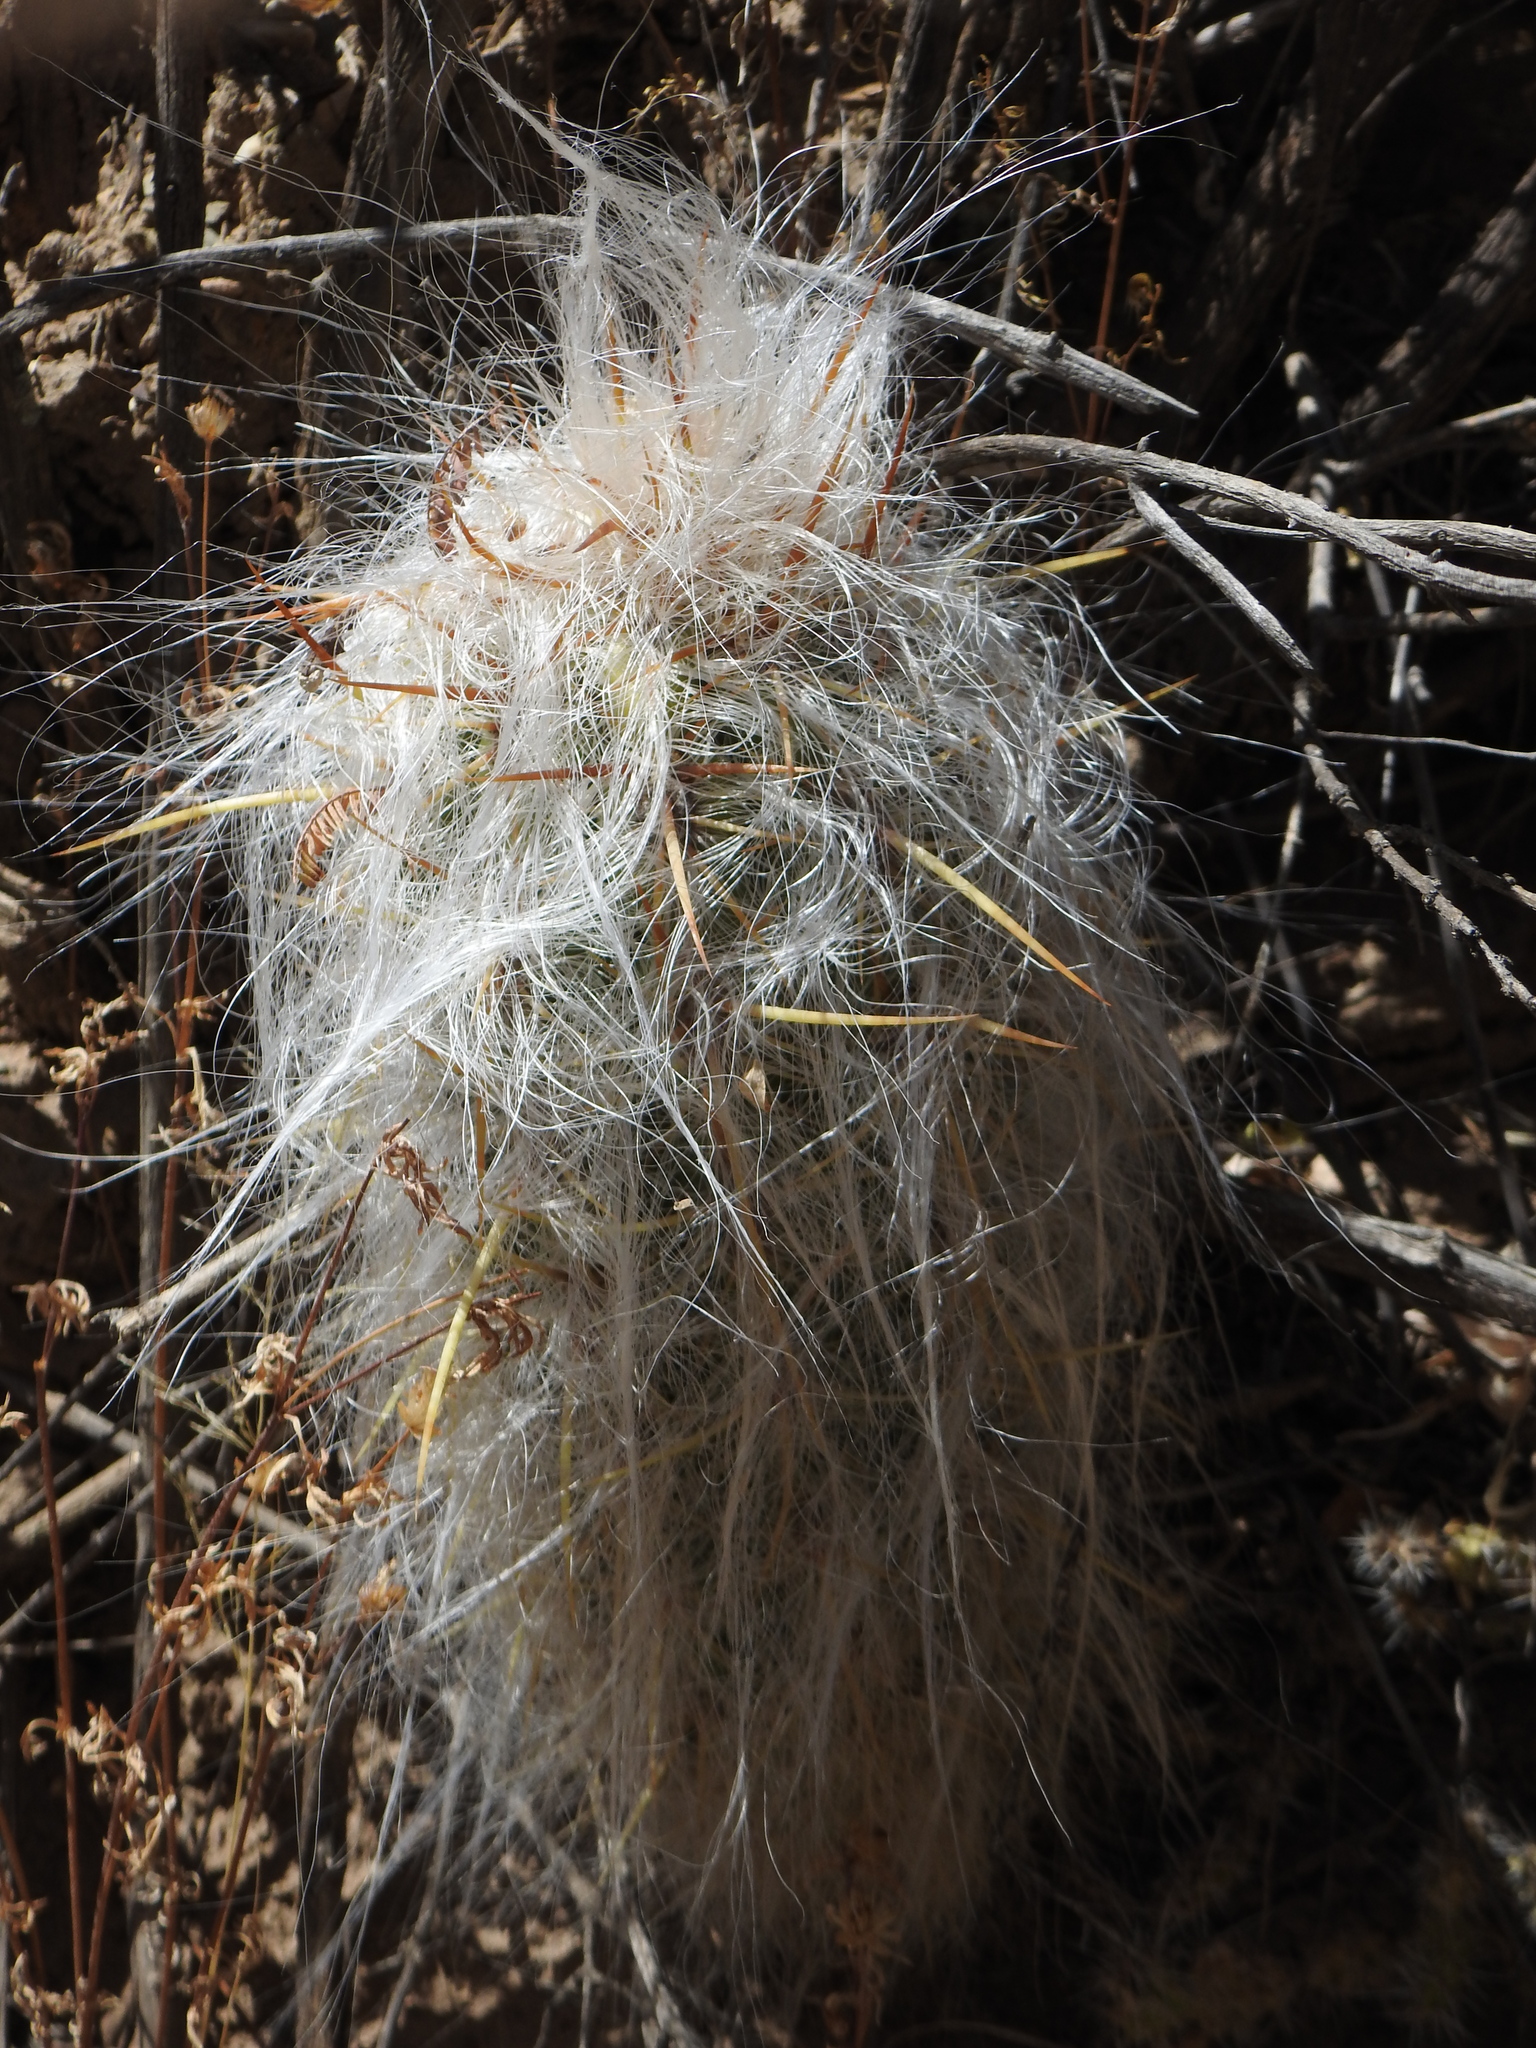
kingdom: Plantae
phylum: Tracheophyta
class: Magnoliopsida
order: Caryophyllales
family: Cactaceae
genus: Oreocereus
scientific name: Oreocereus celsianus
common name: Old-man-of-the-andes
